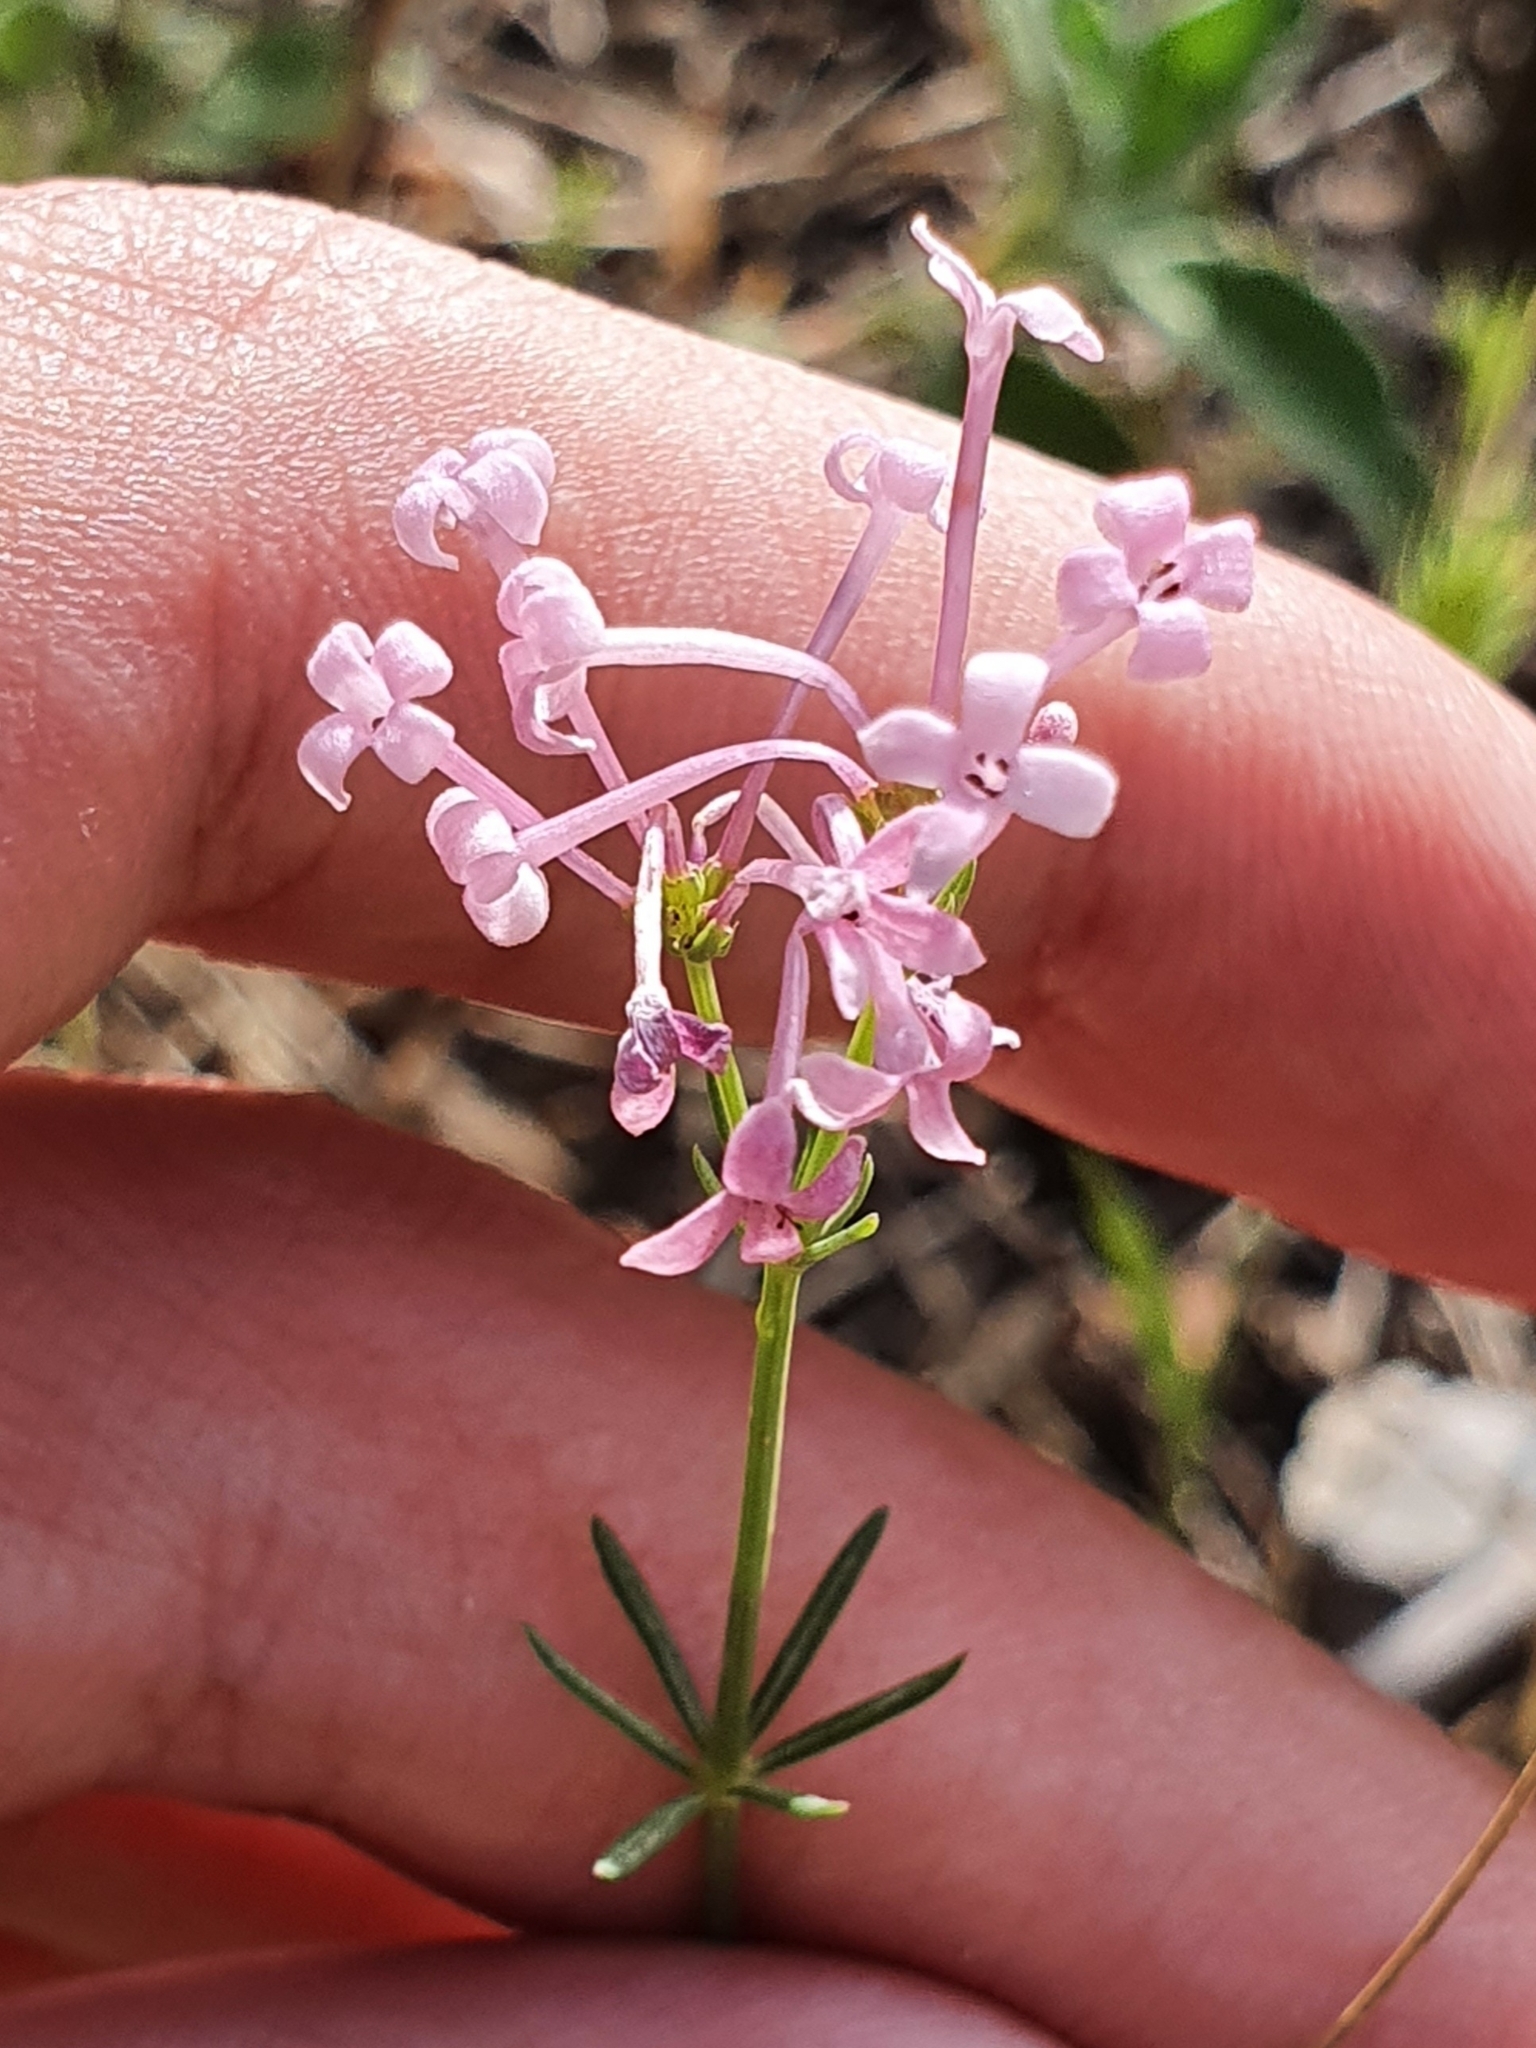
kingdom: Plantae
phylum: Tracheophyta
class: Magnoliopsida
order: Gentianales
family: Rubiaceae
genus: Hexaphylla
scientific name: Hexaphylla hirsuta
